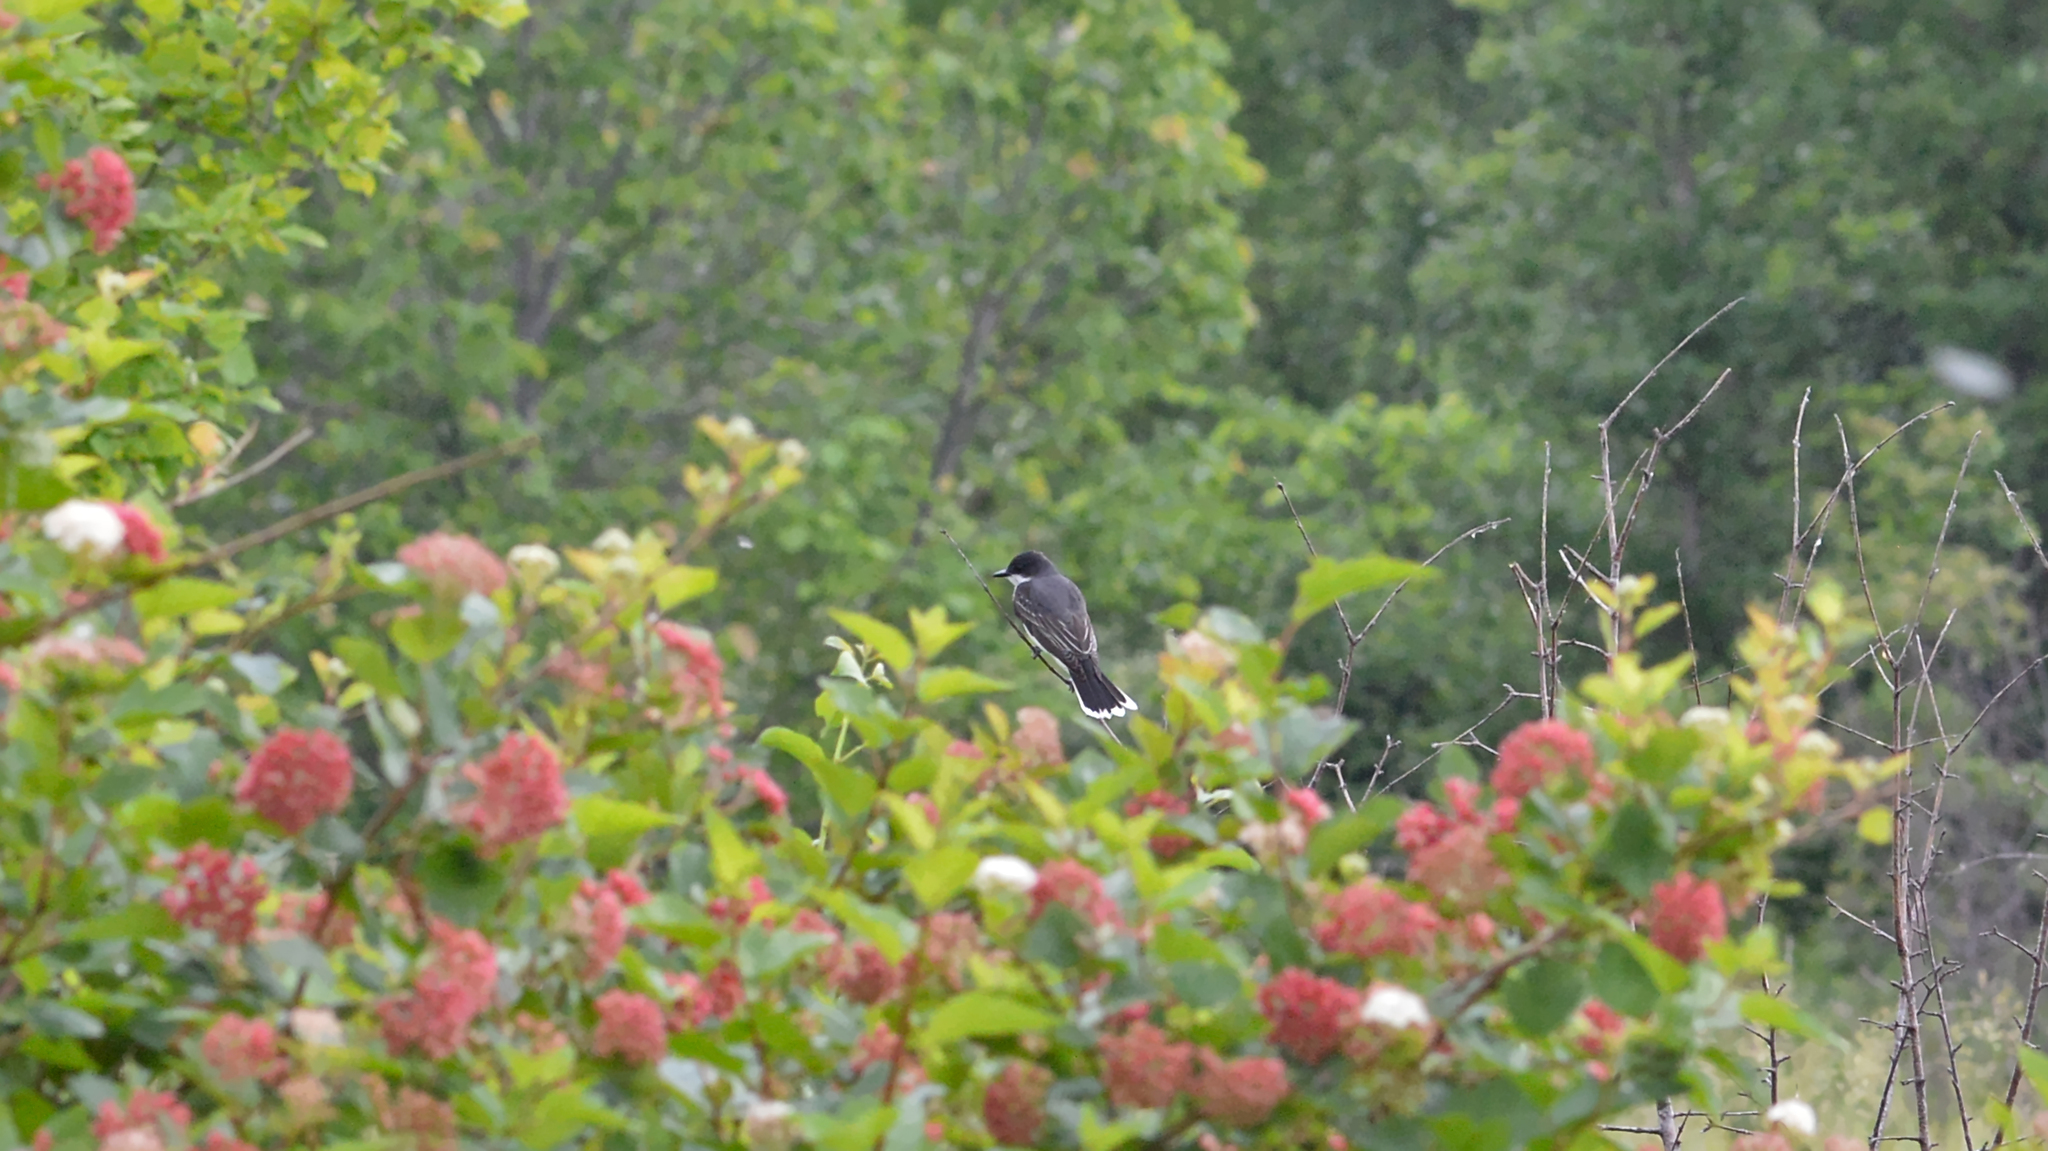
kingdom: Animalia
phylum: Chordata
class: Aves
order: Passeriformes
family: Tyrannidae
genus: Tyrannus
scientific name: Tyrannus tyrannus
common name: Eastern kingbird
